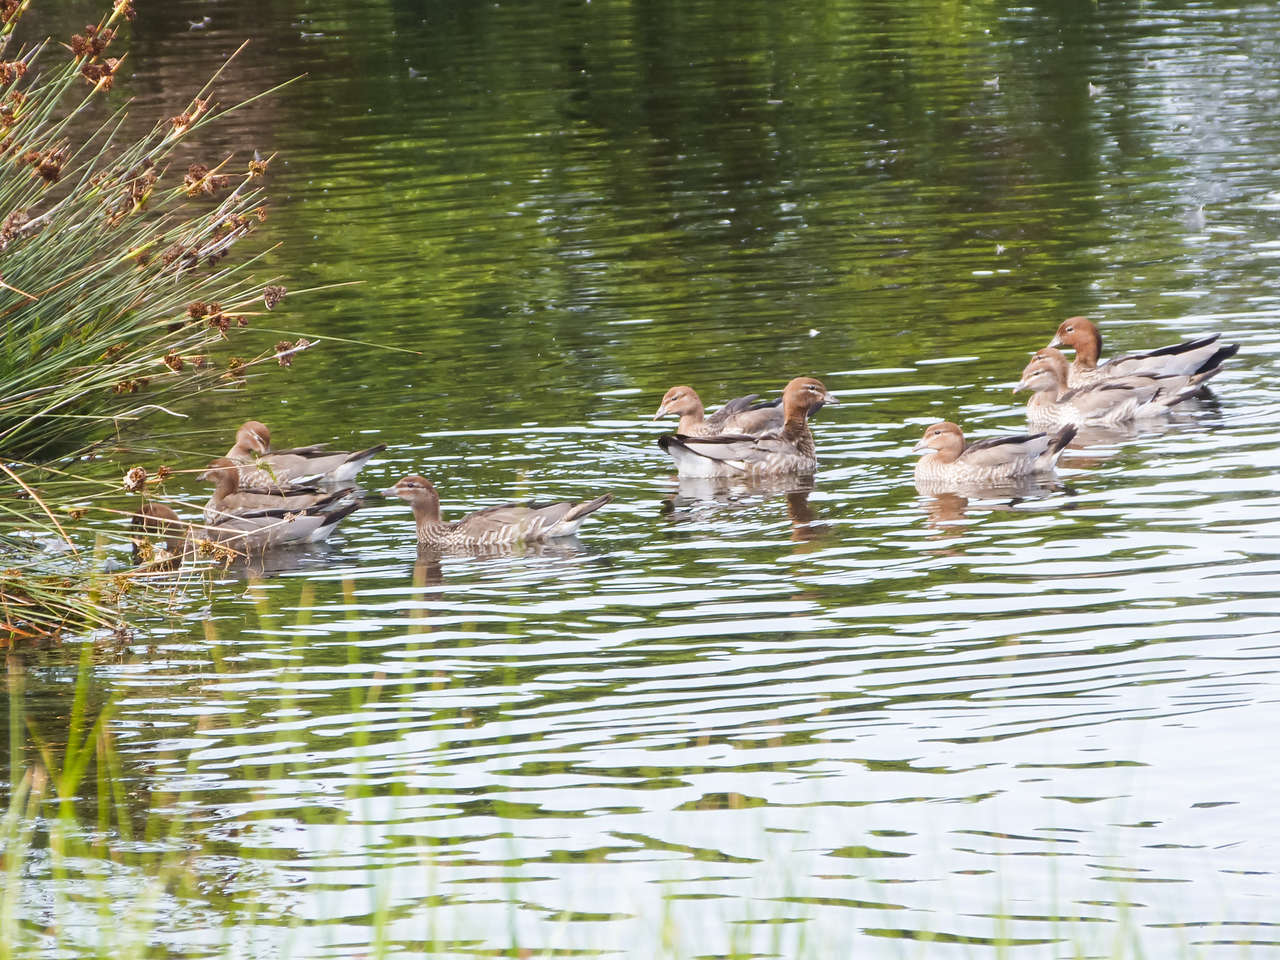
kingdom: Animalia
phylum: Chordata
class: Aves
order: Anseriformes
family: Anatidae
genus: Chenonetta
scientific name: Chenonetta jubata
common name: Maned duck
